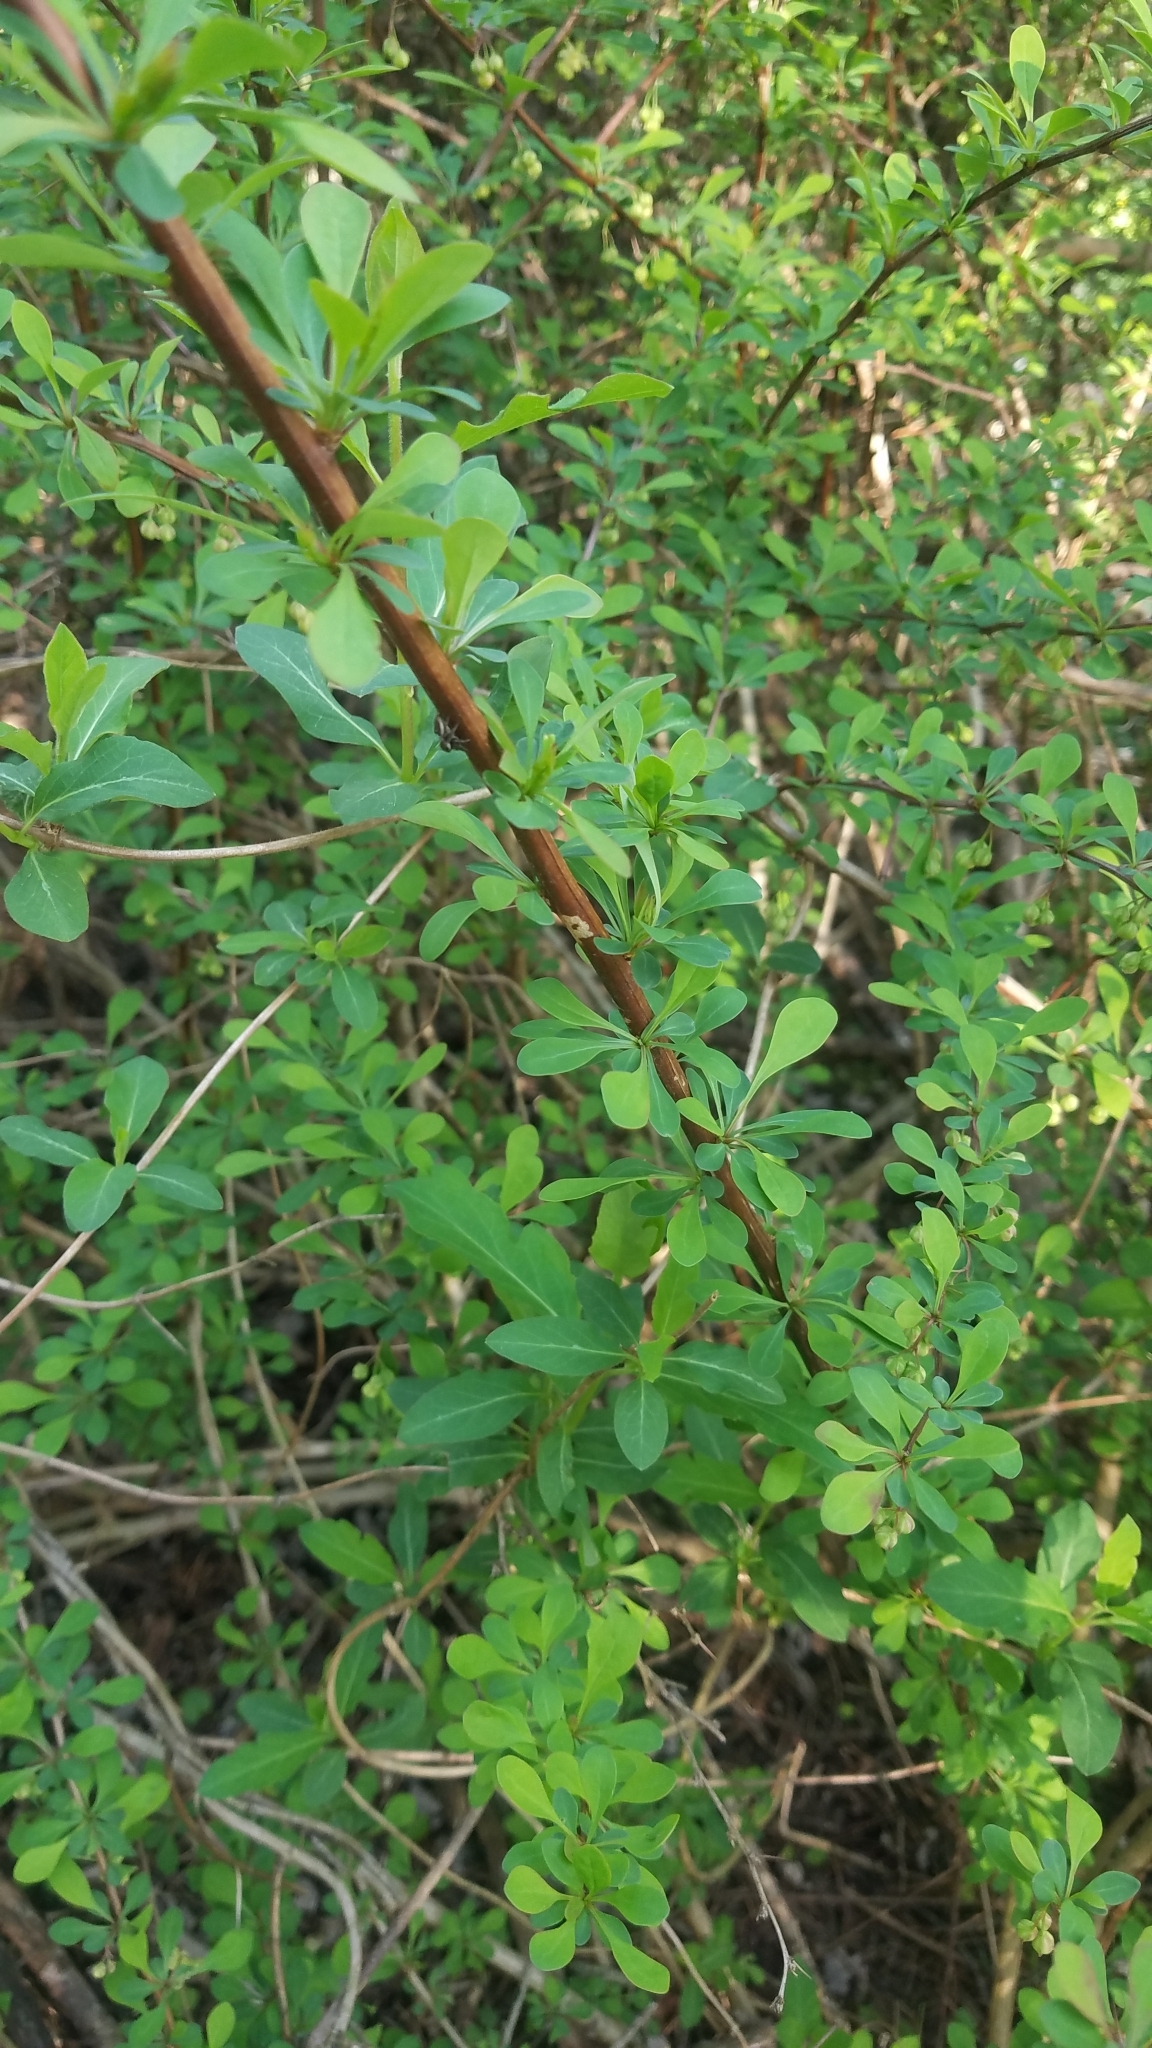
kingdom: Plantae
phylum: Tracheophyta
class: Magnoliopsida
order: Ranunculales
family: Berberidaceae
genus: Berberis
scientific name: Berberis thunbergii
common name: Japanese barberry
